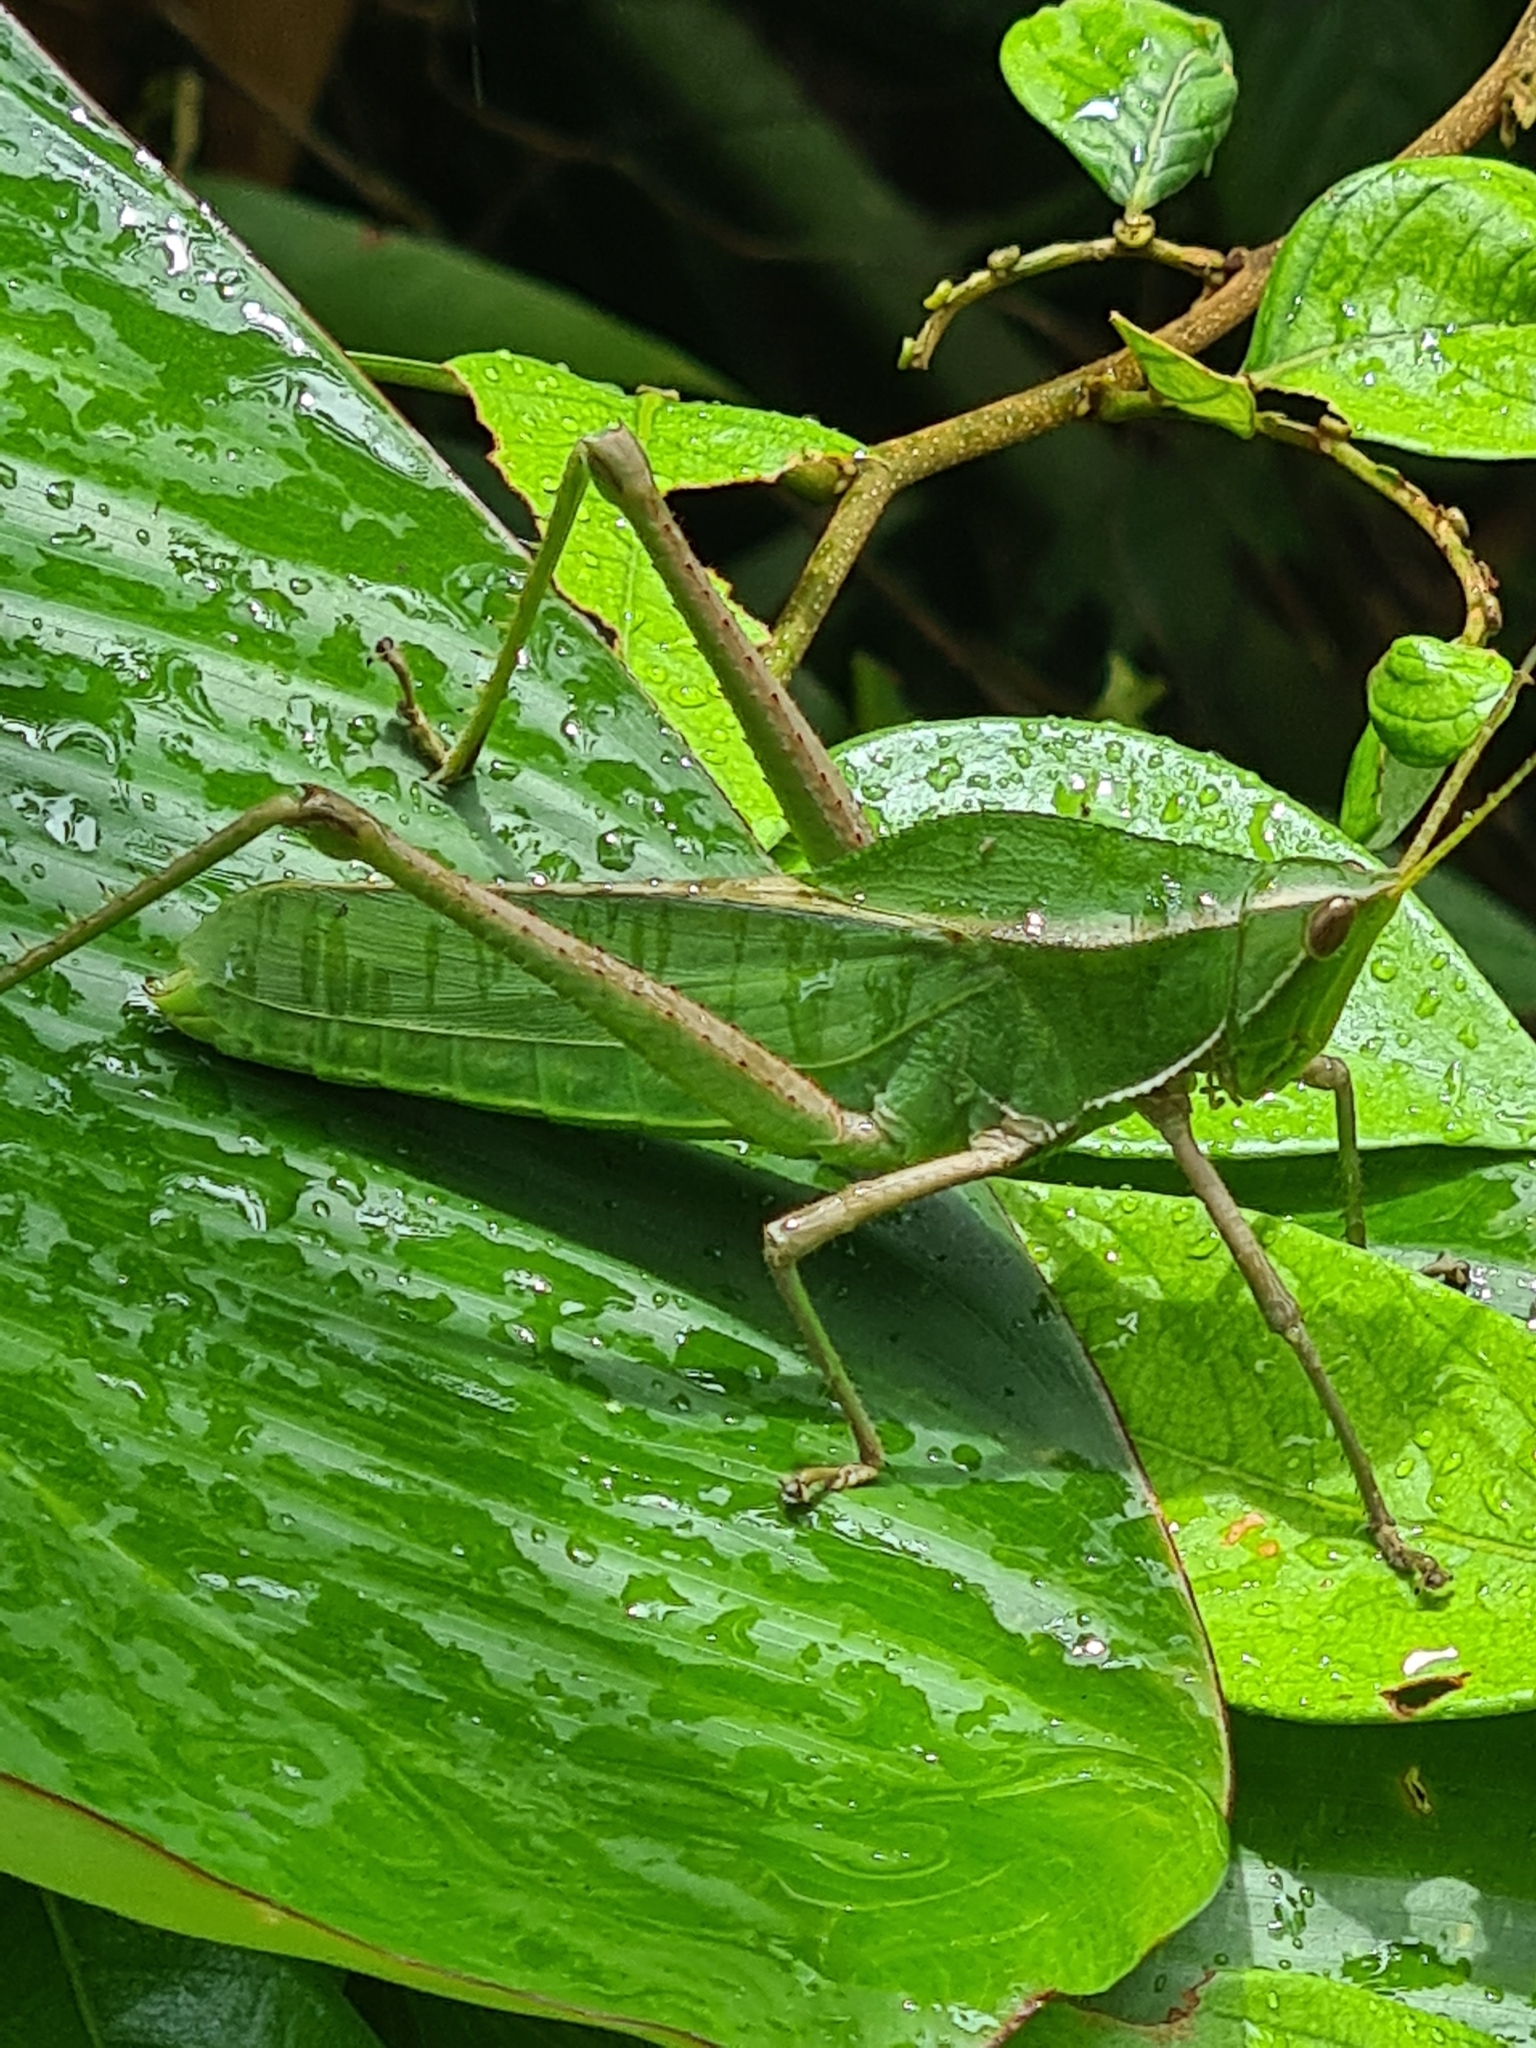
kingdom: Animalia
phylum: Arthropoda
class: Insecta
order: Orthoptera
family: Romaleidae
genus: Prionolopha
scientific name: Prionolopha serrata
